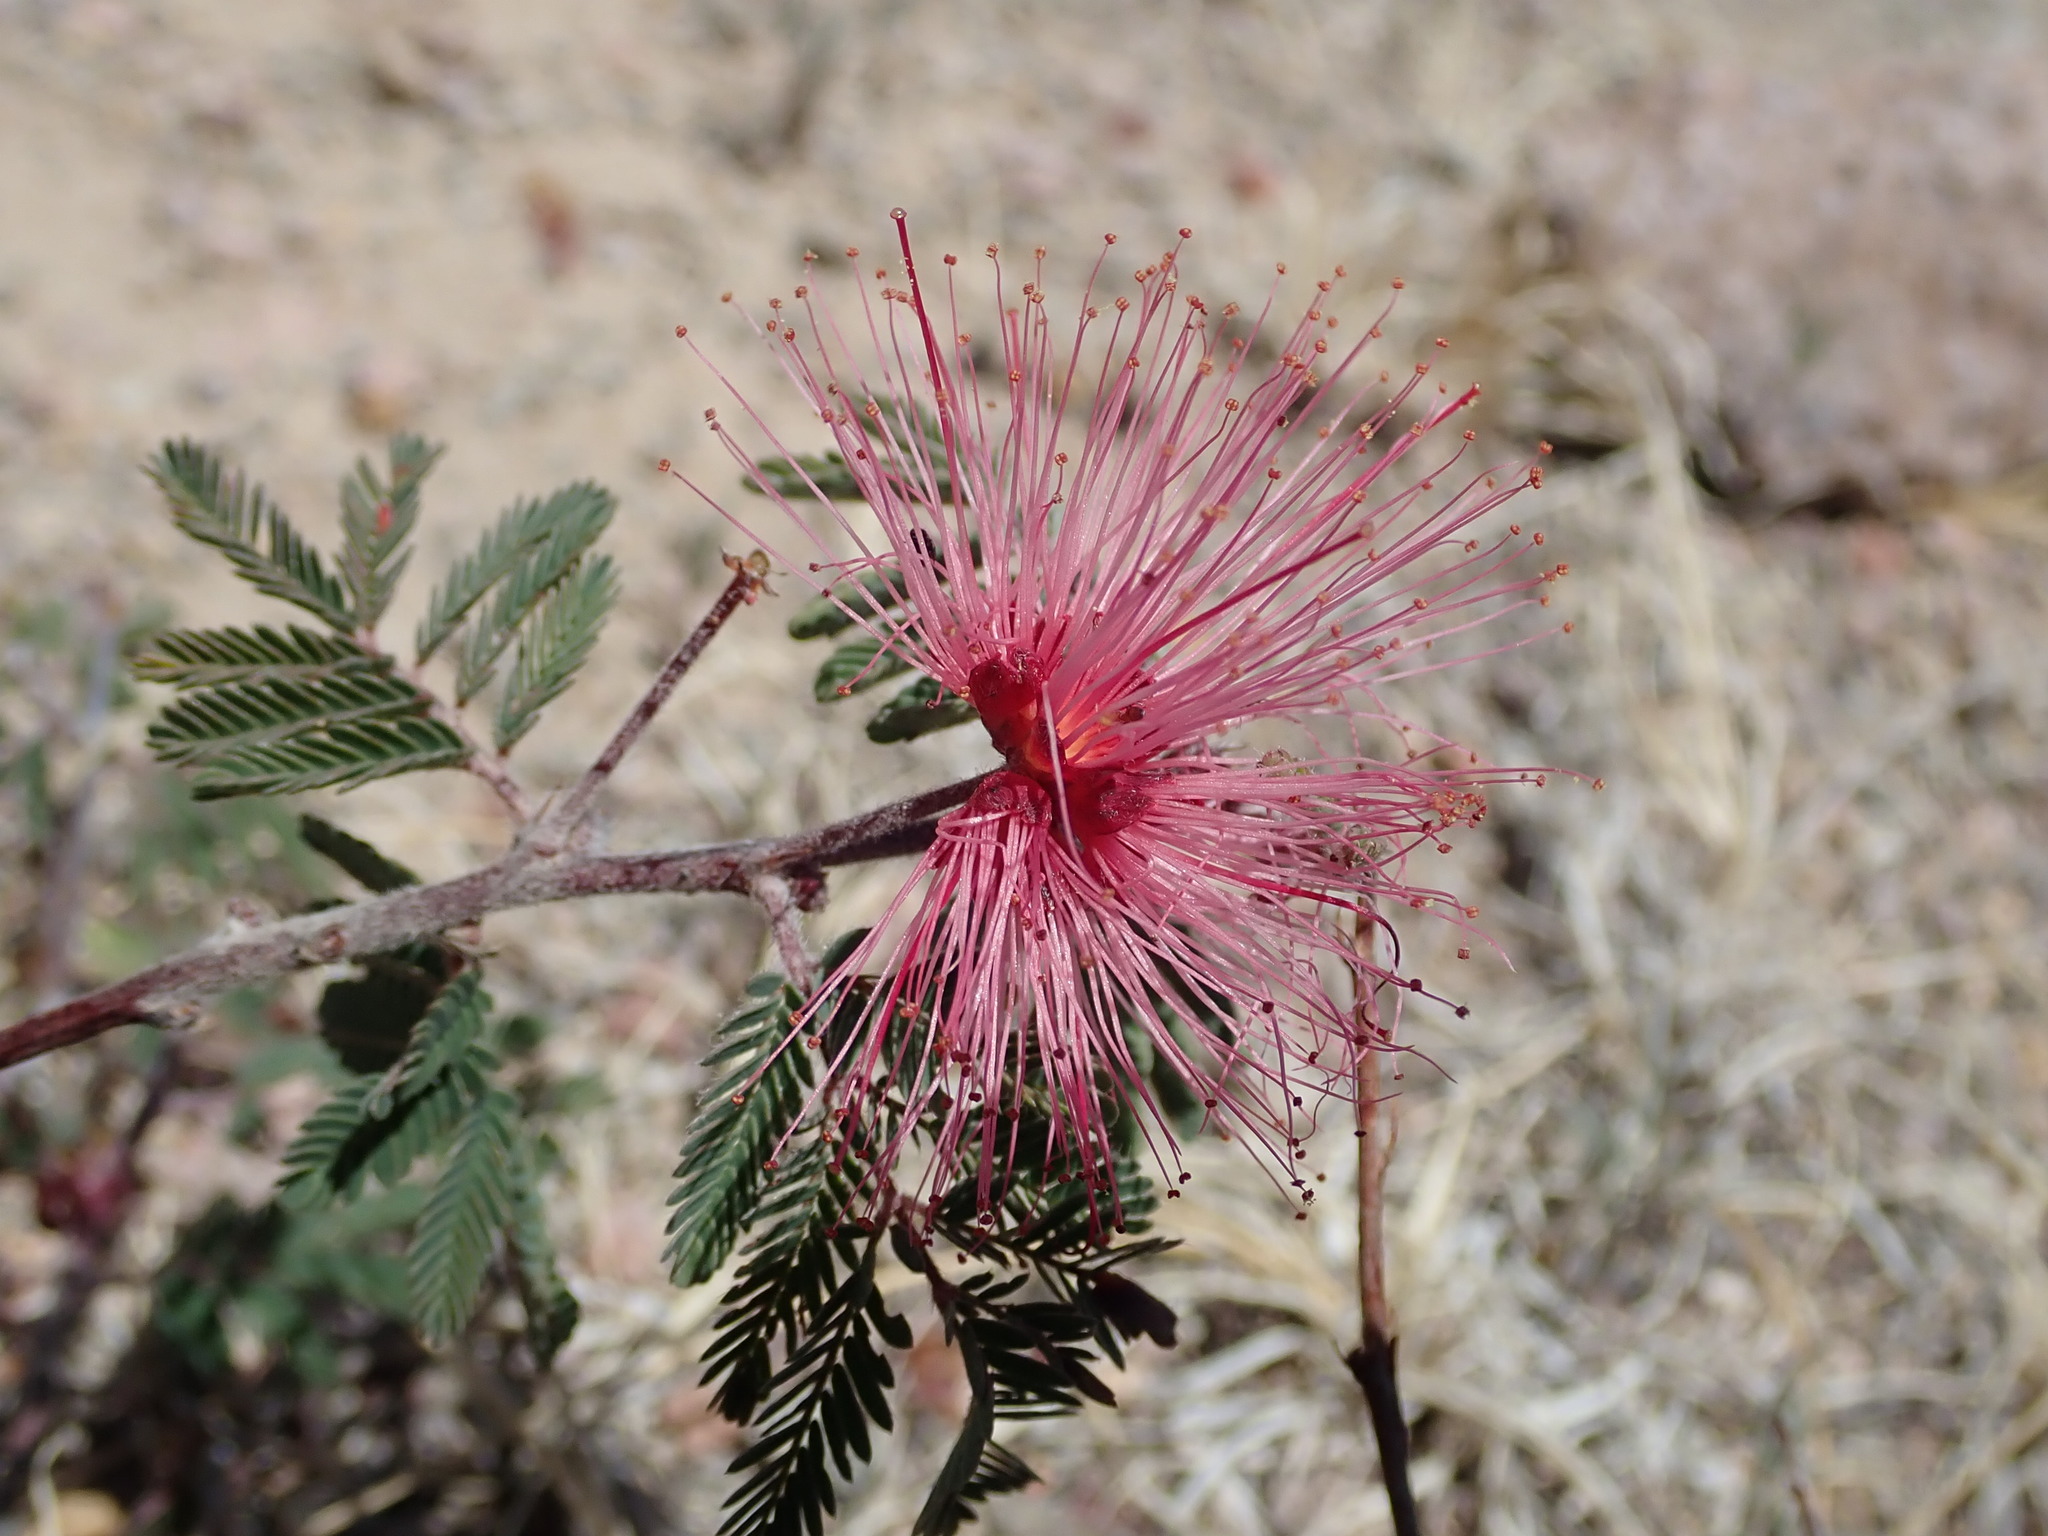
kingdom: Plantae
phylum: Tracheophyta
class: Magnoliopsida
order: Fabales
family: Fabaceae
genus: Calliandra
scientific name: Calliandra eriophylla
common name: Fairy-duster
